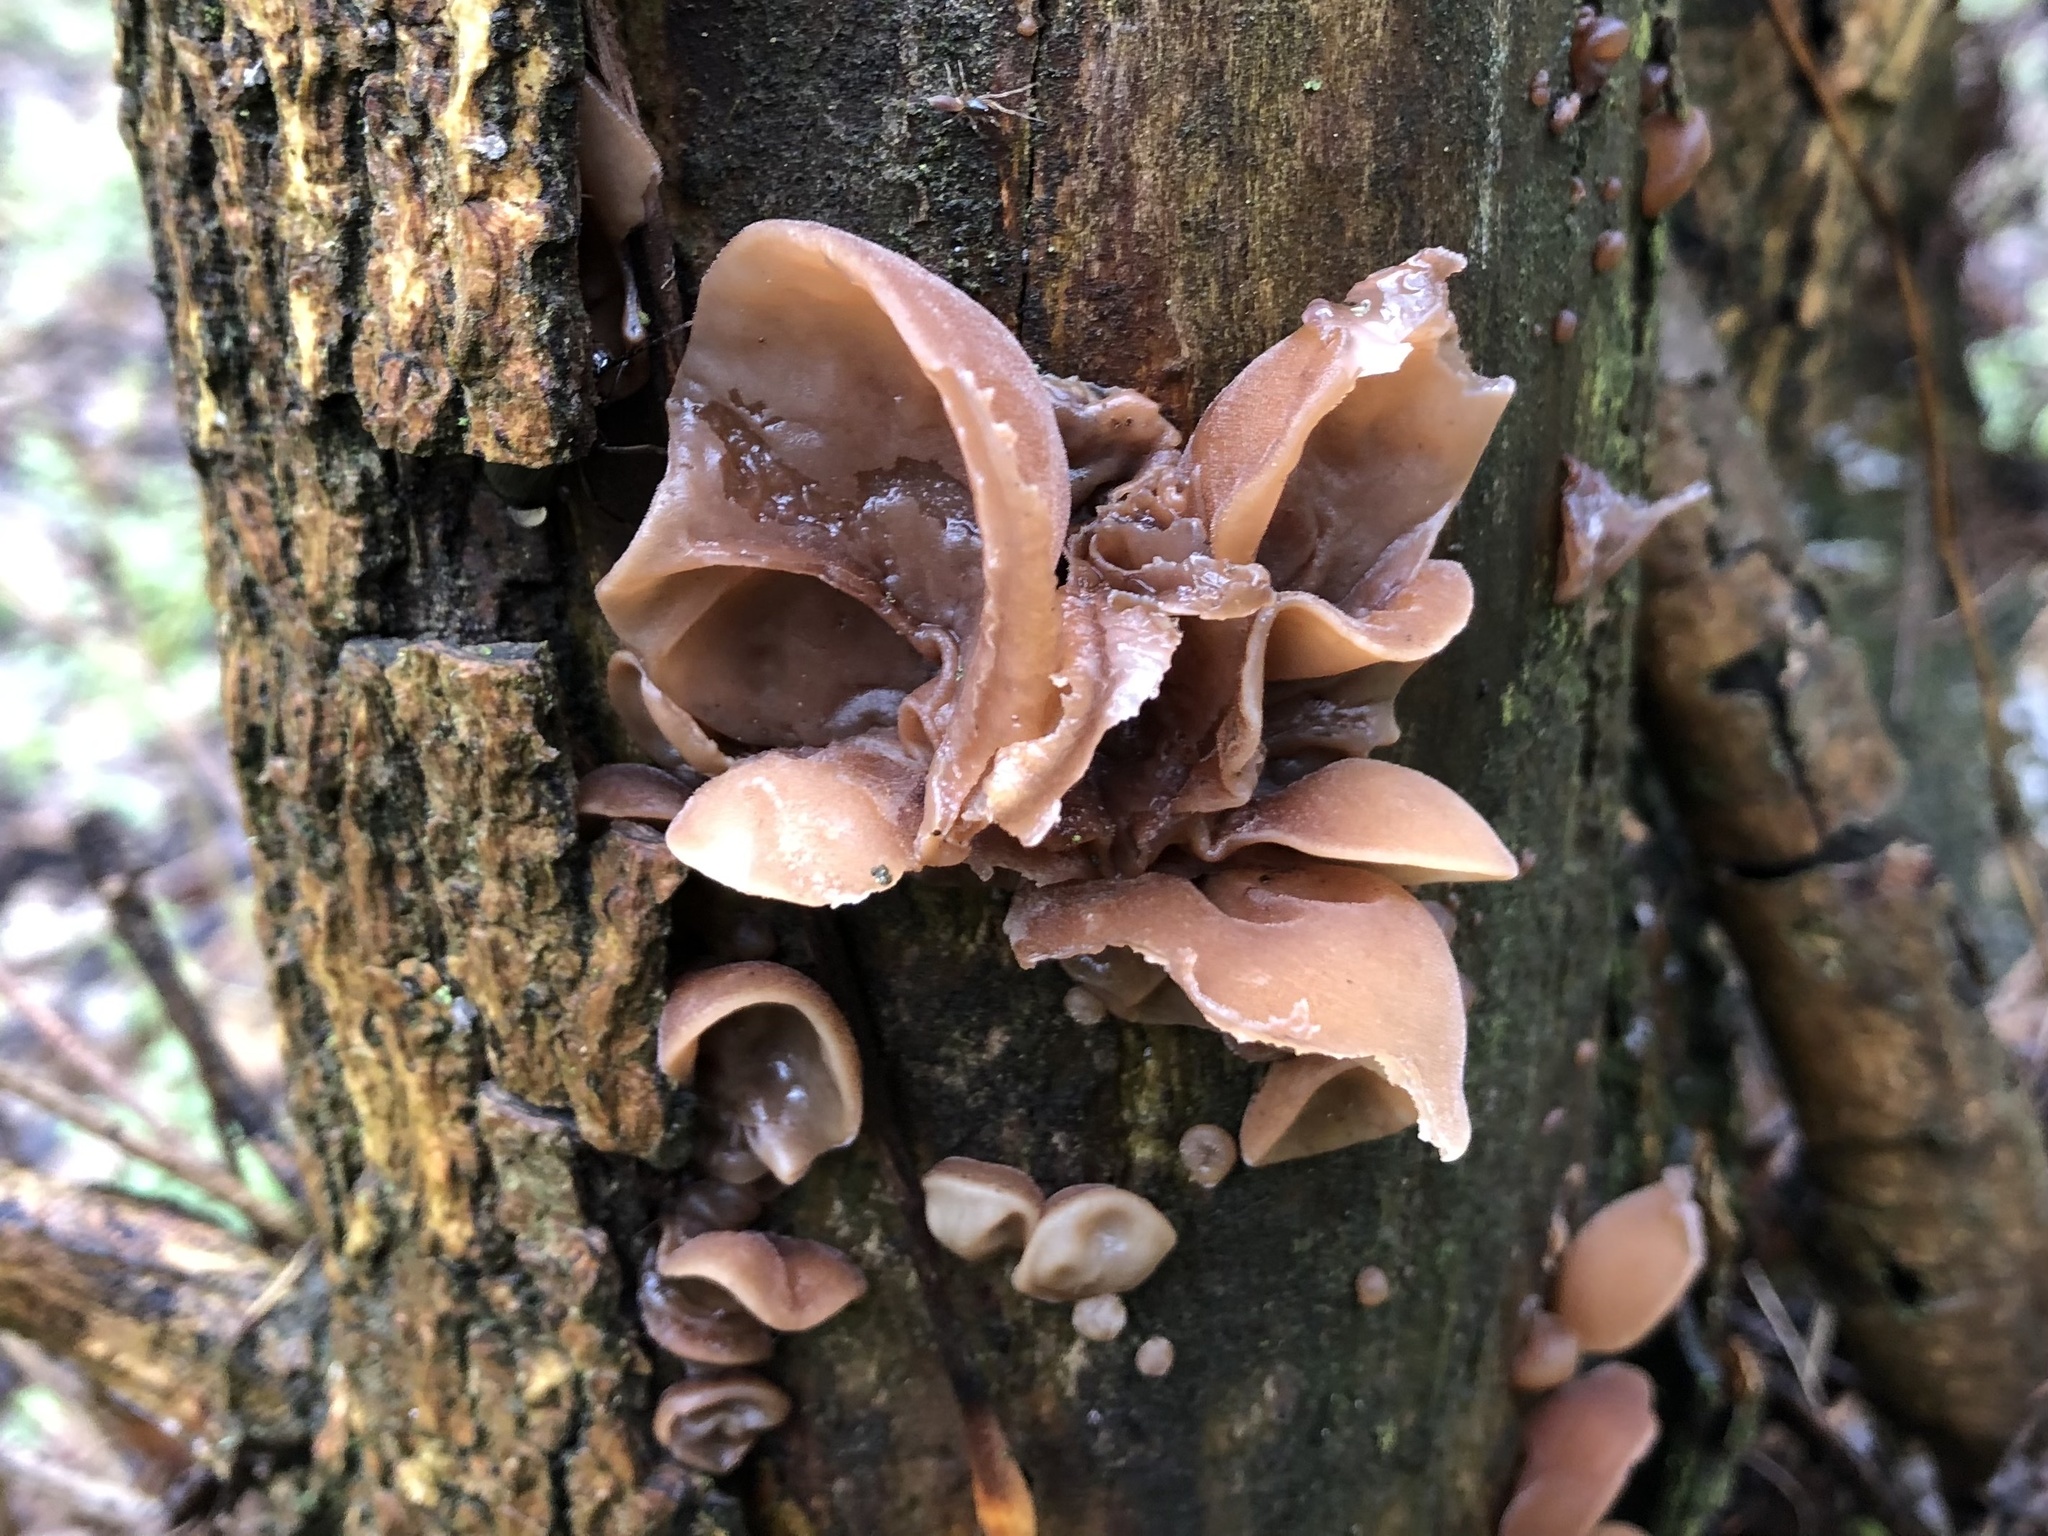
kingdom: Fungi
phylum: Basidiomycota
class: Agaricomycetes
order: Auriculariales
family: Auriculariaceae
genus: Auricularia
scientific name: Auricularia auricula-judae
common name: Jelly ear
